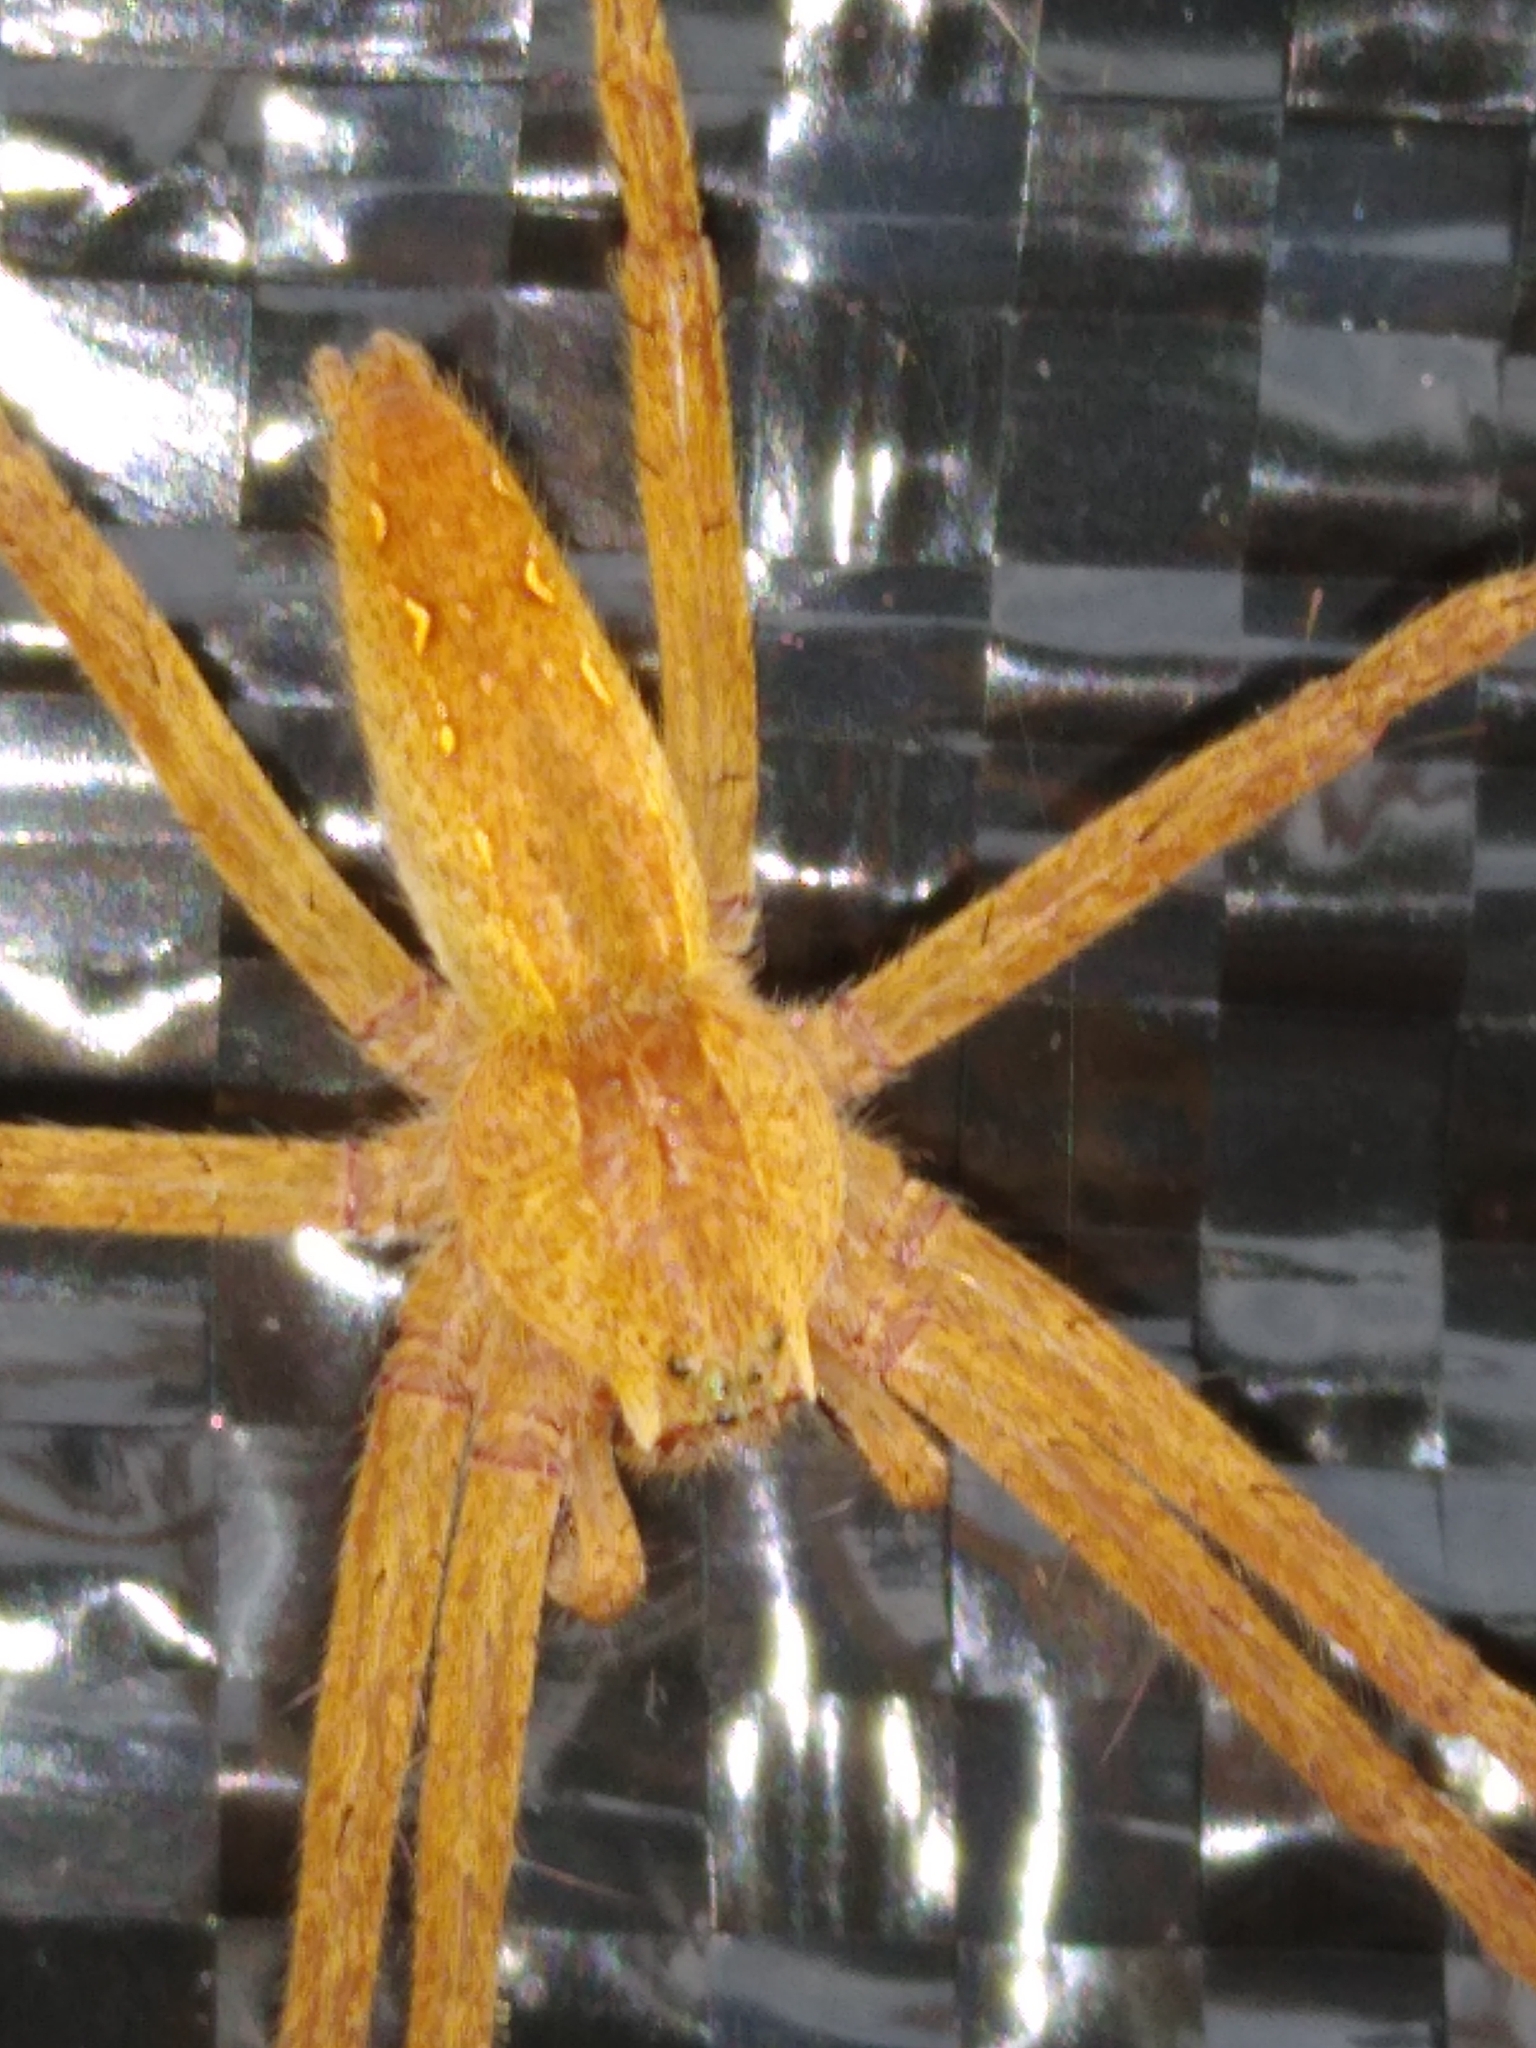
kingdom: Animalia
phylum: Arthropoda
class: Arachnida
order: Araneae
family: Pisauridae
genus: Pisaurina
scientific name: Pisaurina mira
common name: American nursery web spider
